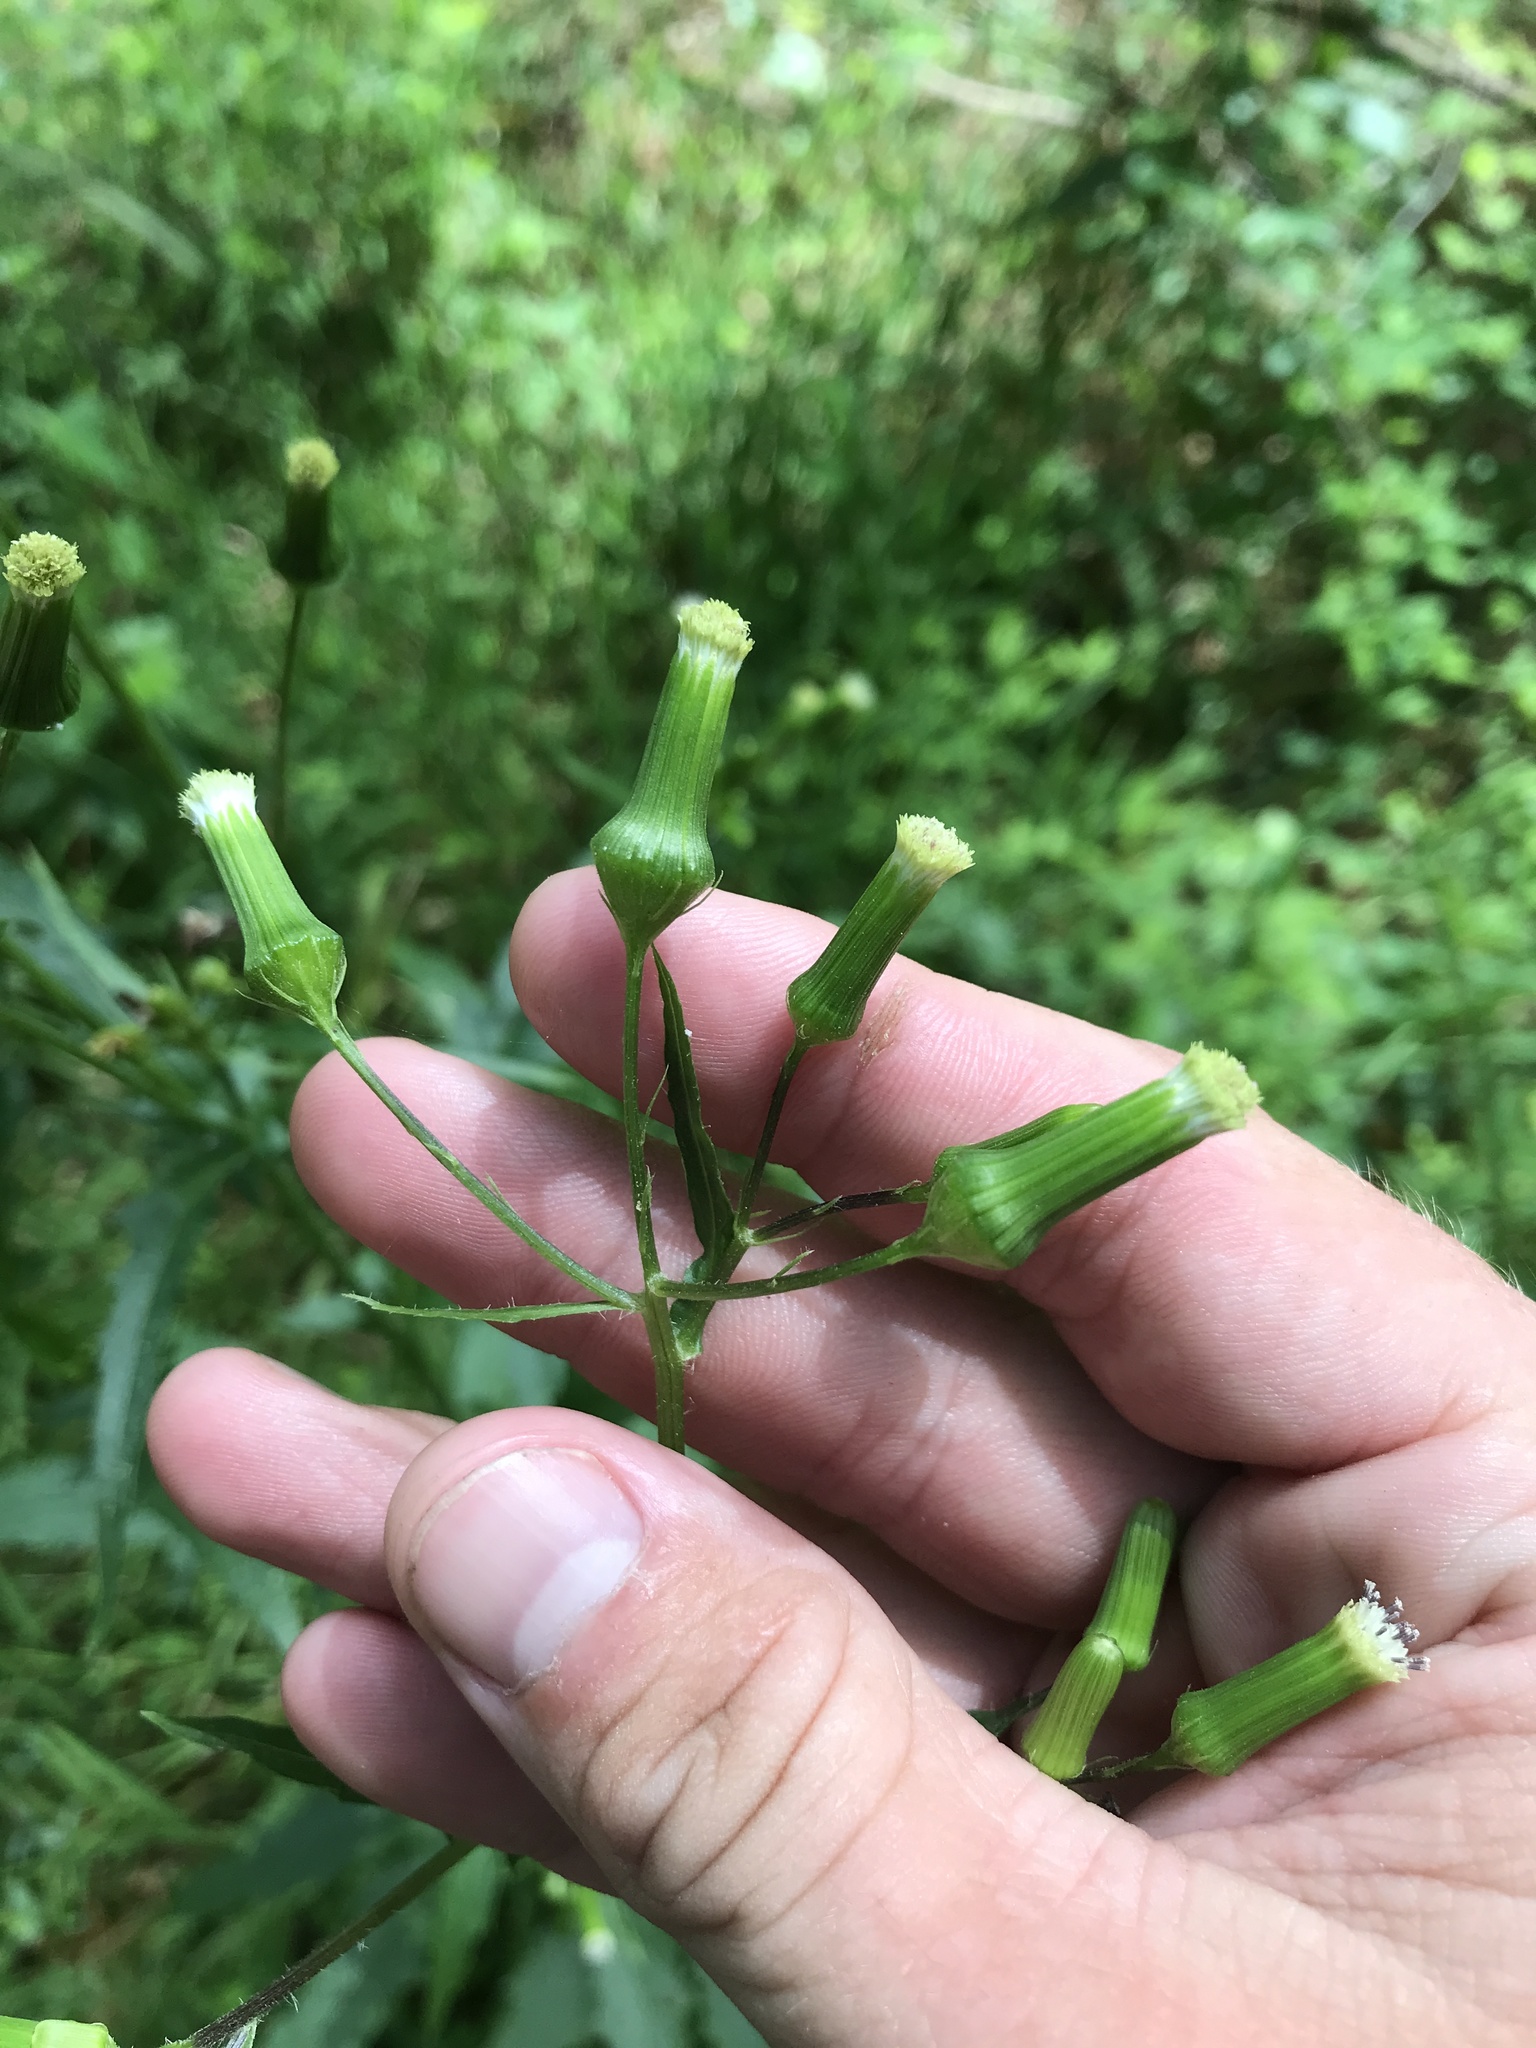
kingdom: Plantae
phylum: Tracheophyta
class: Magnoliopsida
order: Asterales
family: Asteraceae
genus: Erechtites
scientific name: Erechtites hieraciifolius
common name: American burnweed
